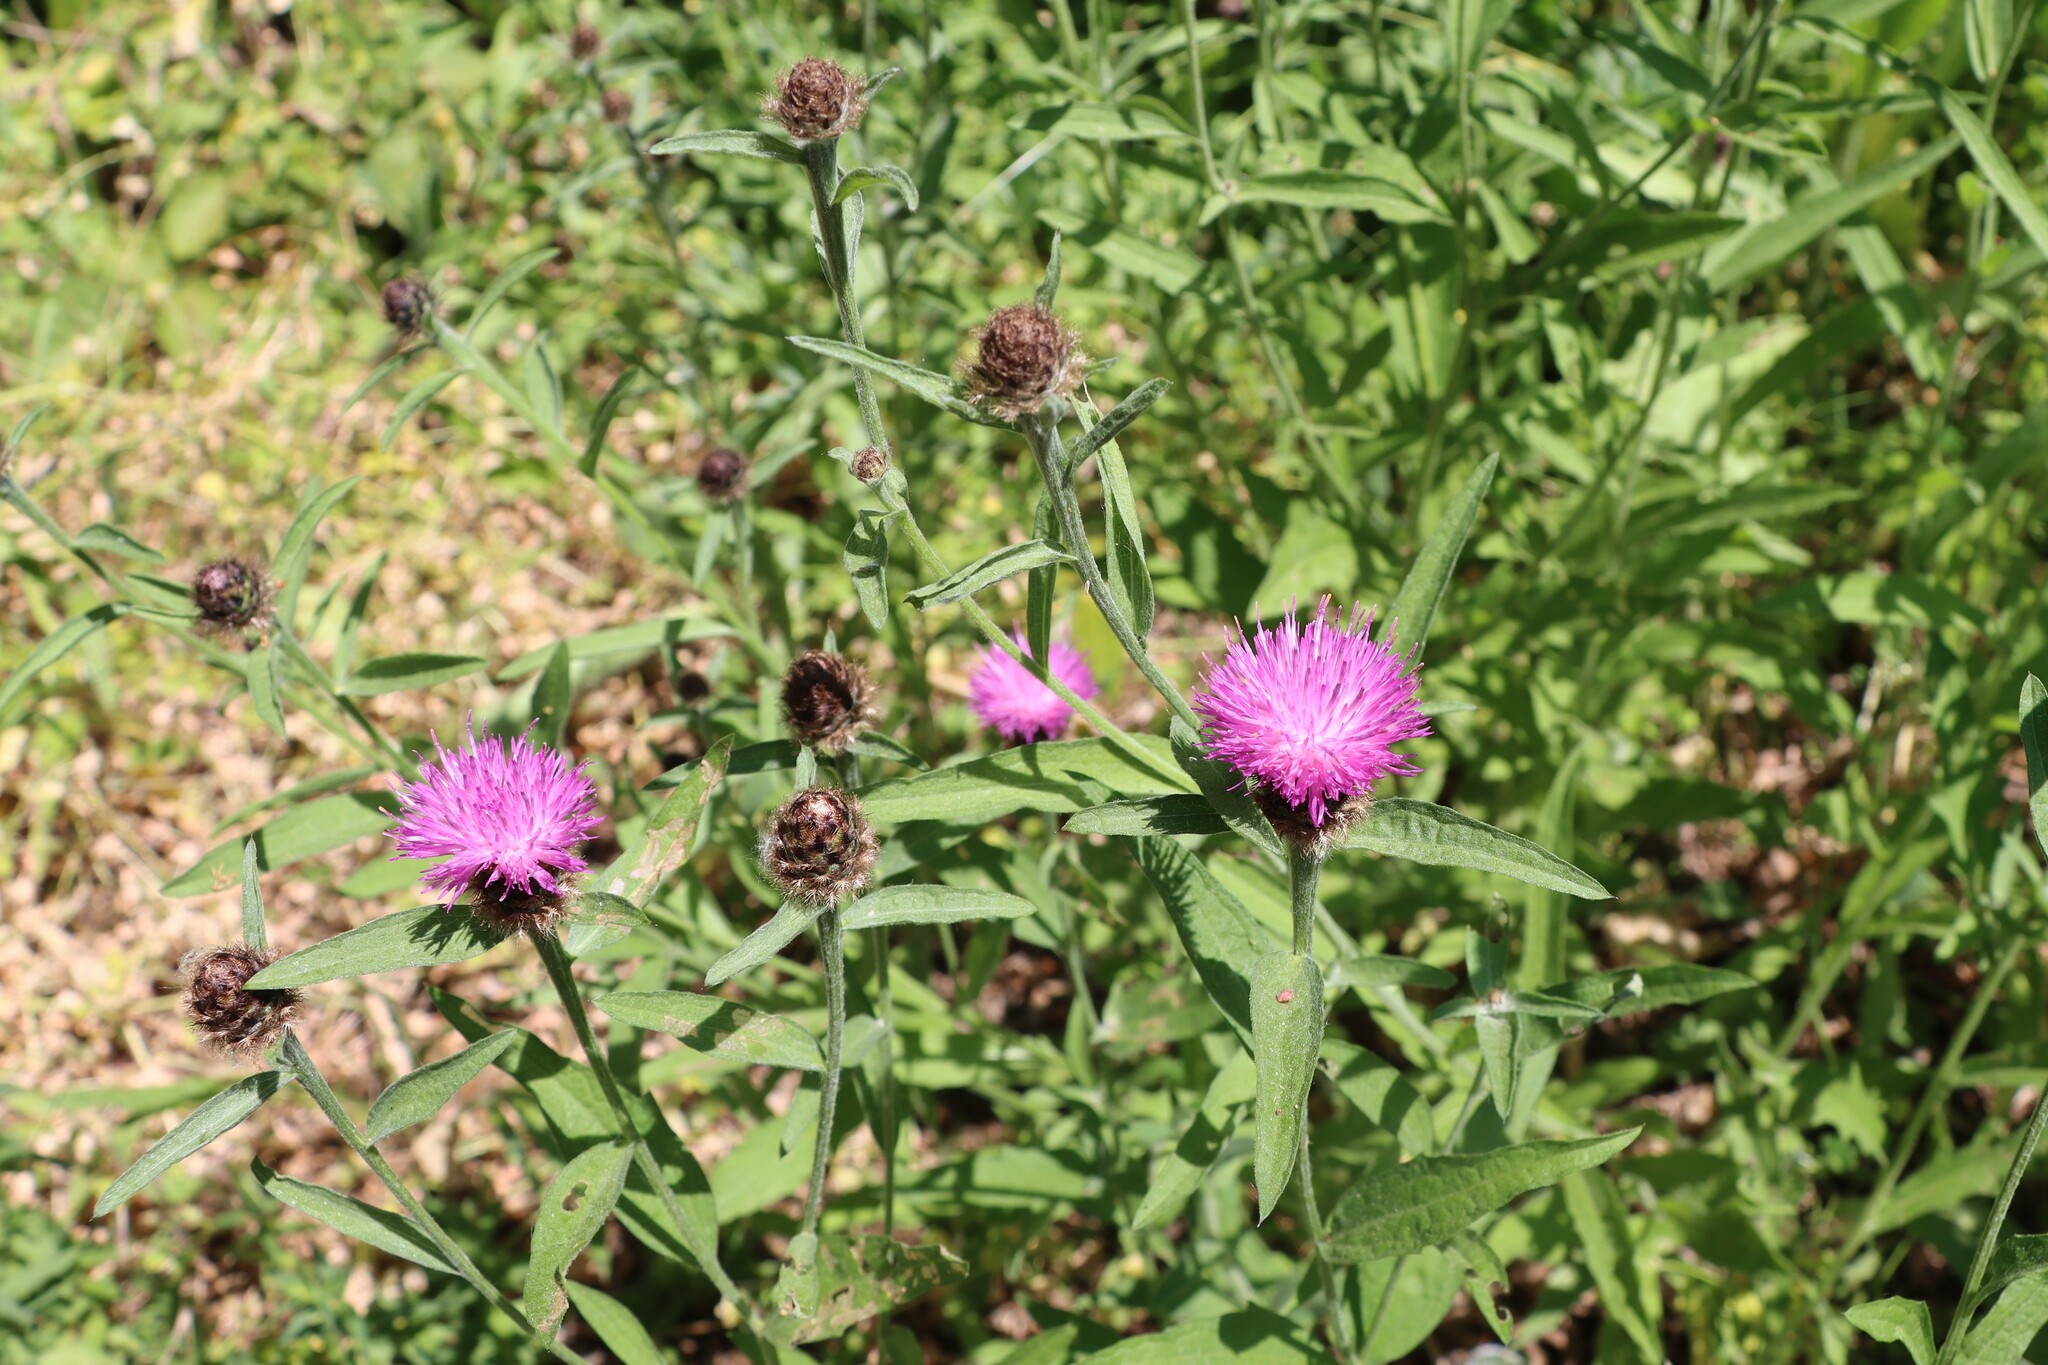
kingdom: Plantae
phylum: Tracheophyta
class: Magnoliopsida
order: Asterales
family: Asteraceae
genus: Centaurea
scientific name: Centaurea nigra
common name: Lesser knapweed
